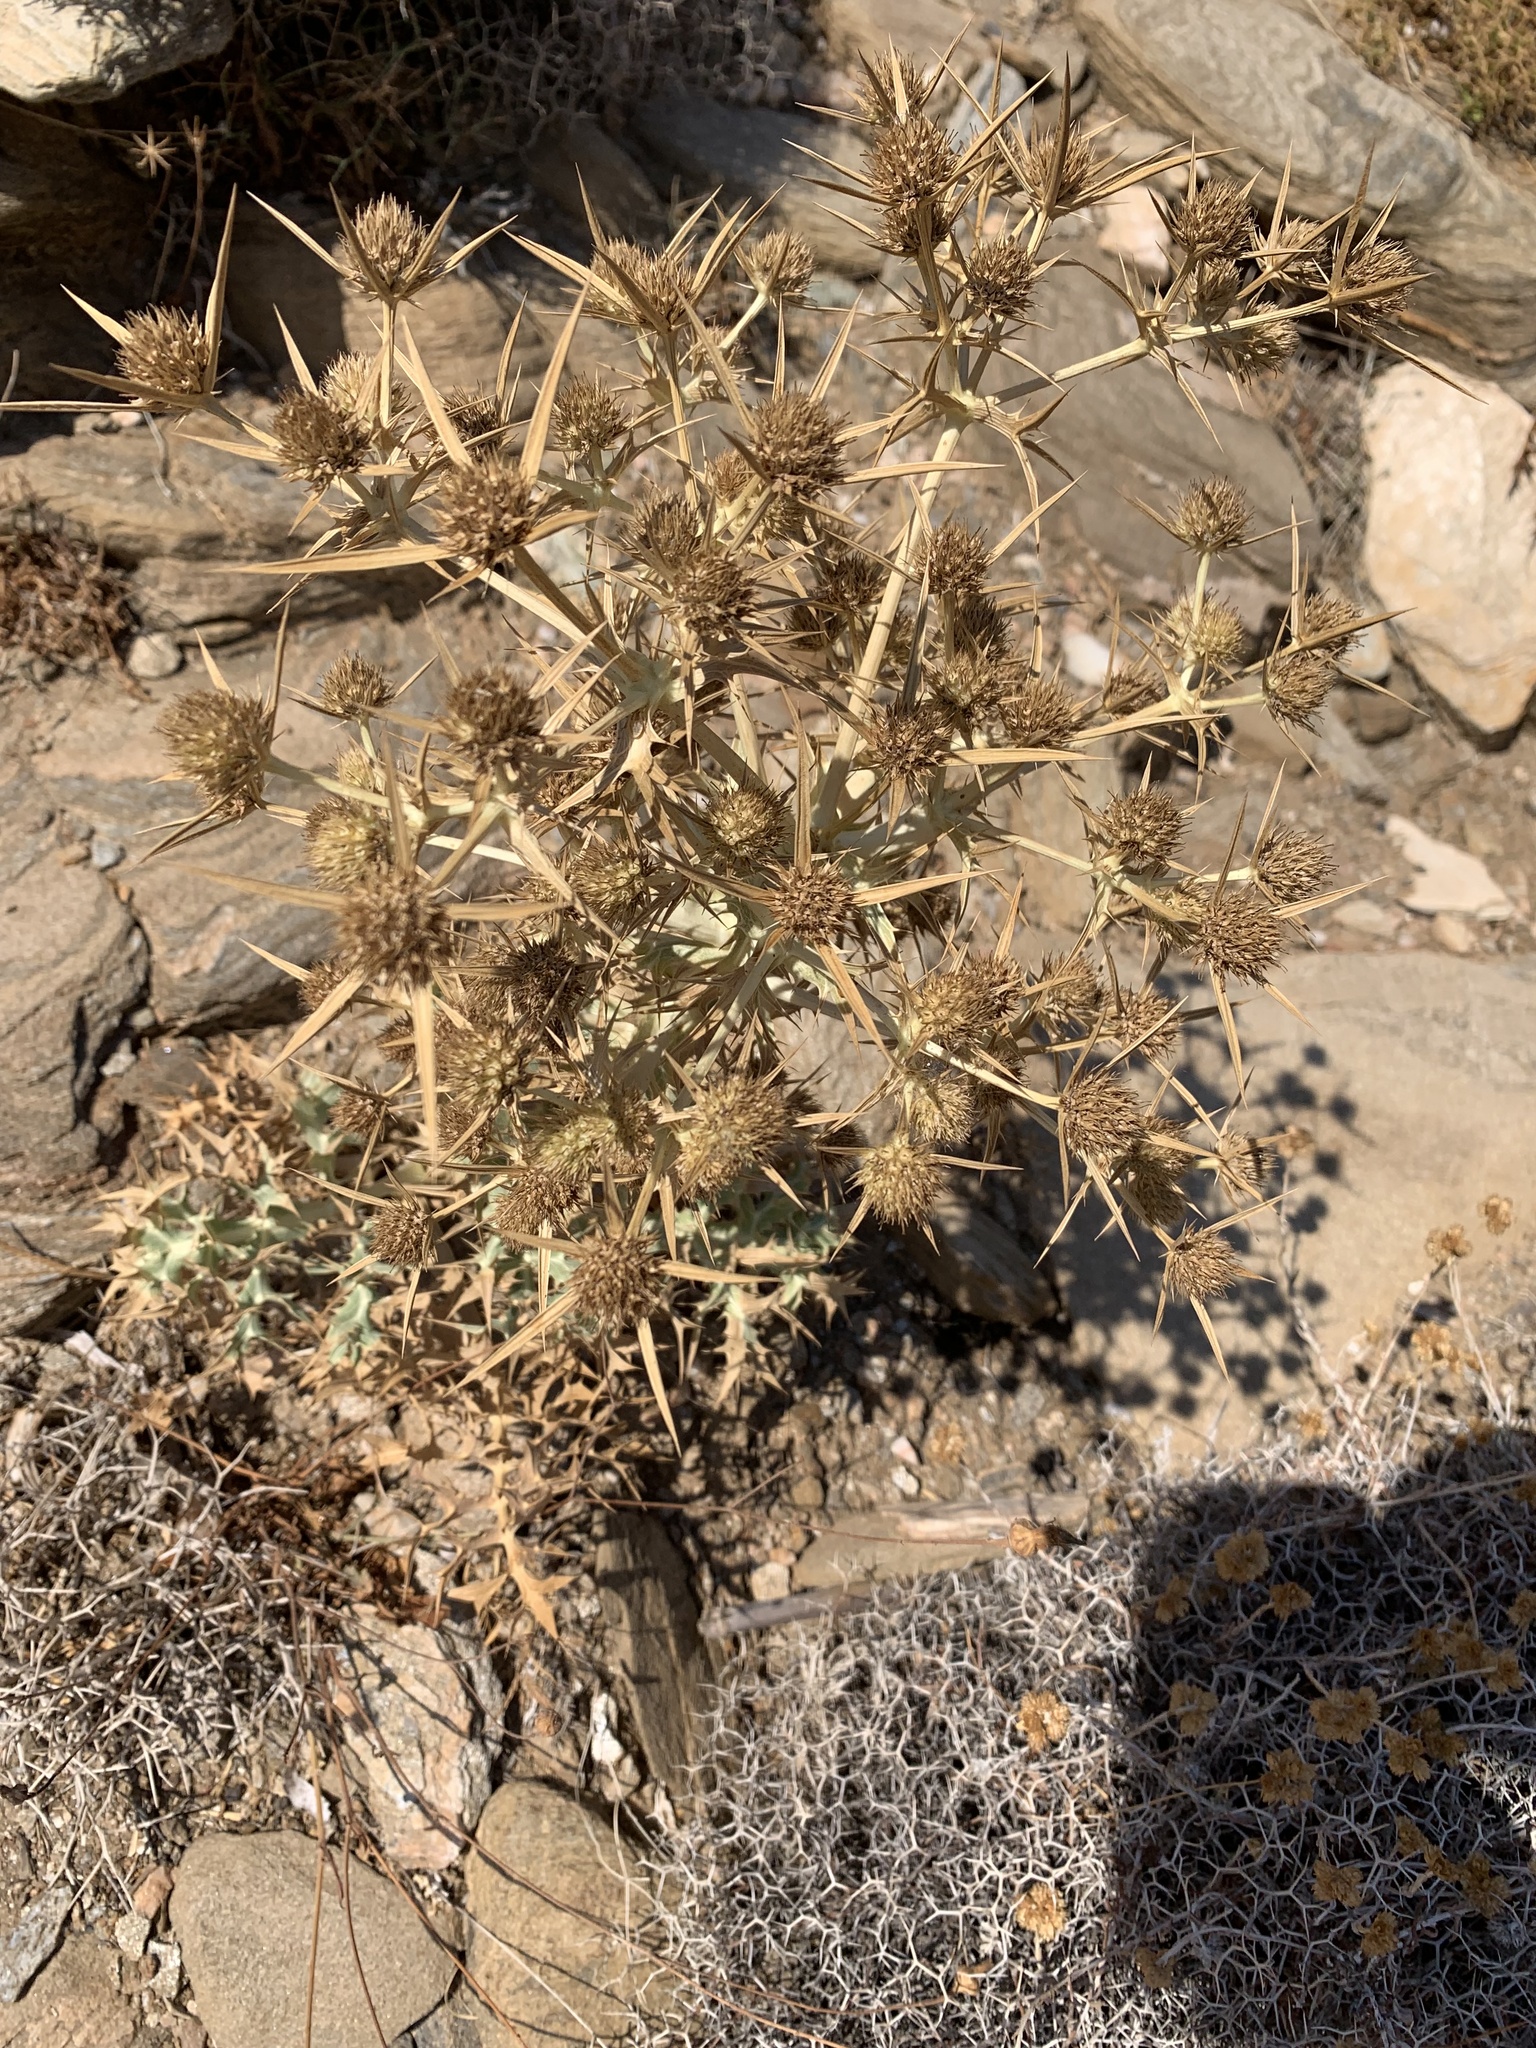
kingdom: Plantae
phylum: Tracheophyta
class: Magnoliopsida
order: Apiales
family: Apiaceae
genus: Eryngium
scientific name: Eryngium campestre
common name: Field eryngo
